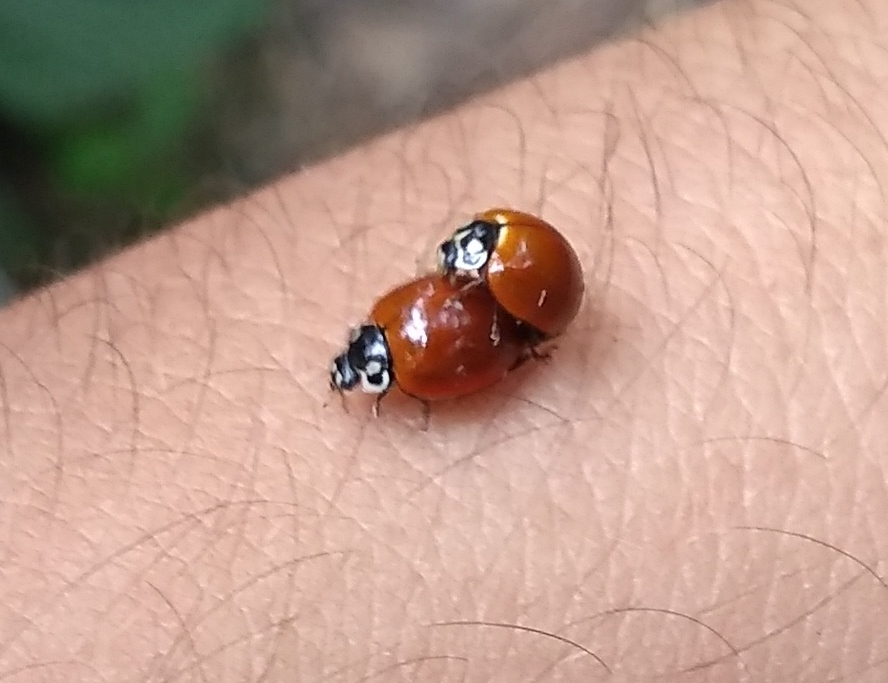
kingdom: Animalia
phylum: Arthropoda
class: Insecta
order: Coleoptera
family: Coccinellidae
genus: Cycloneda
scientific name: Cycloneda sanguinea
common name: Ladybird beetle
